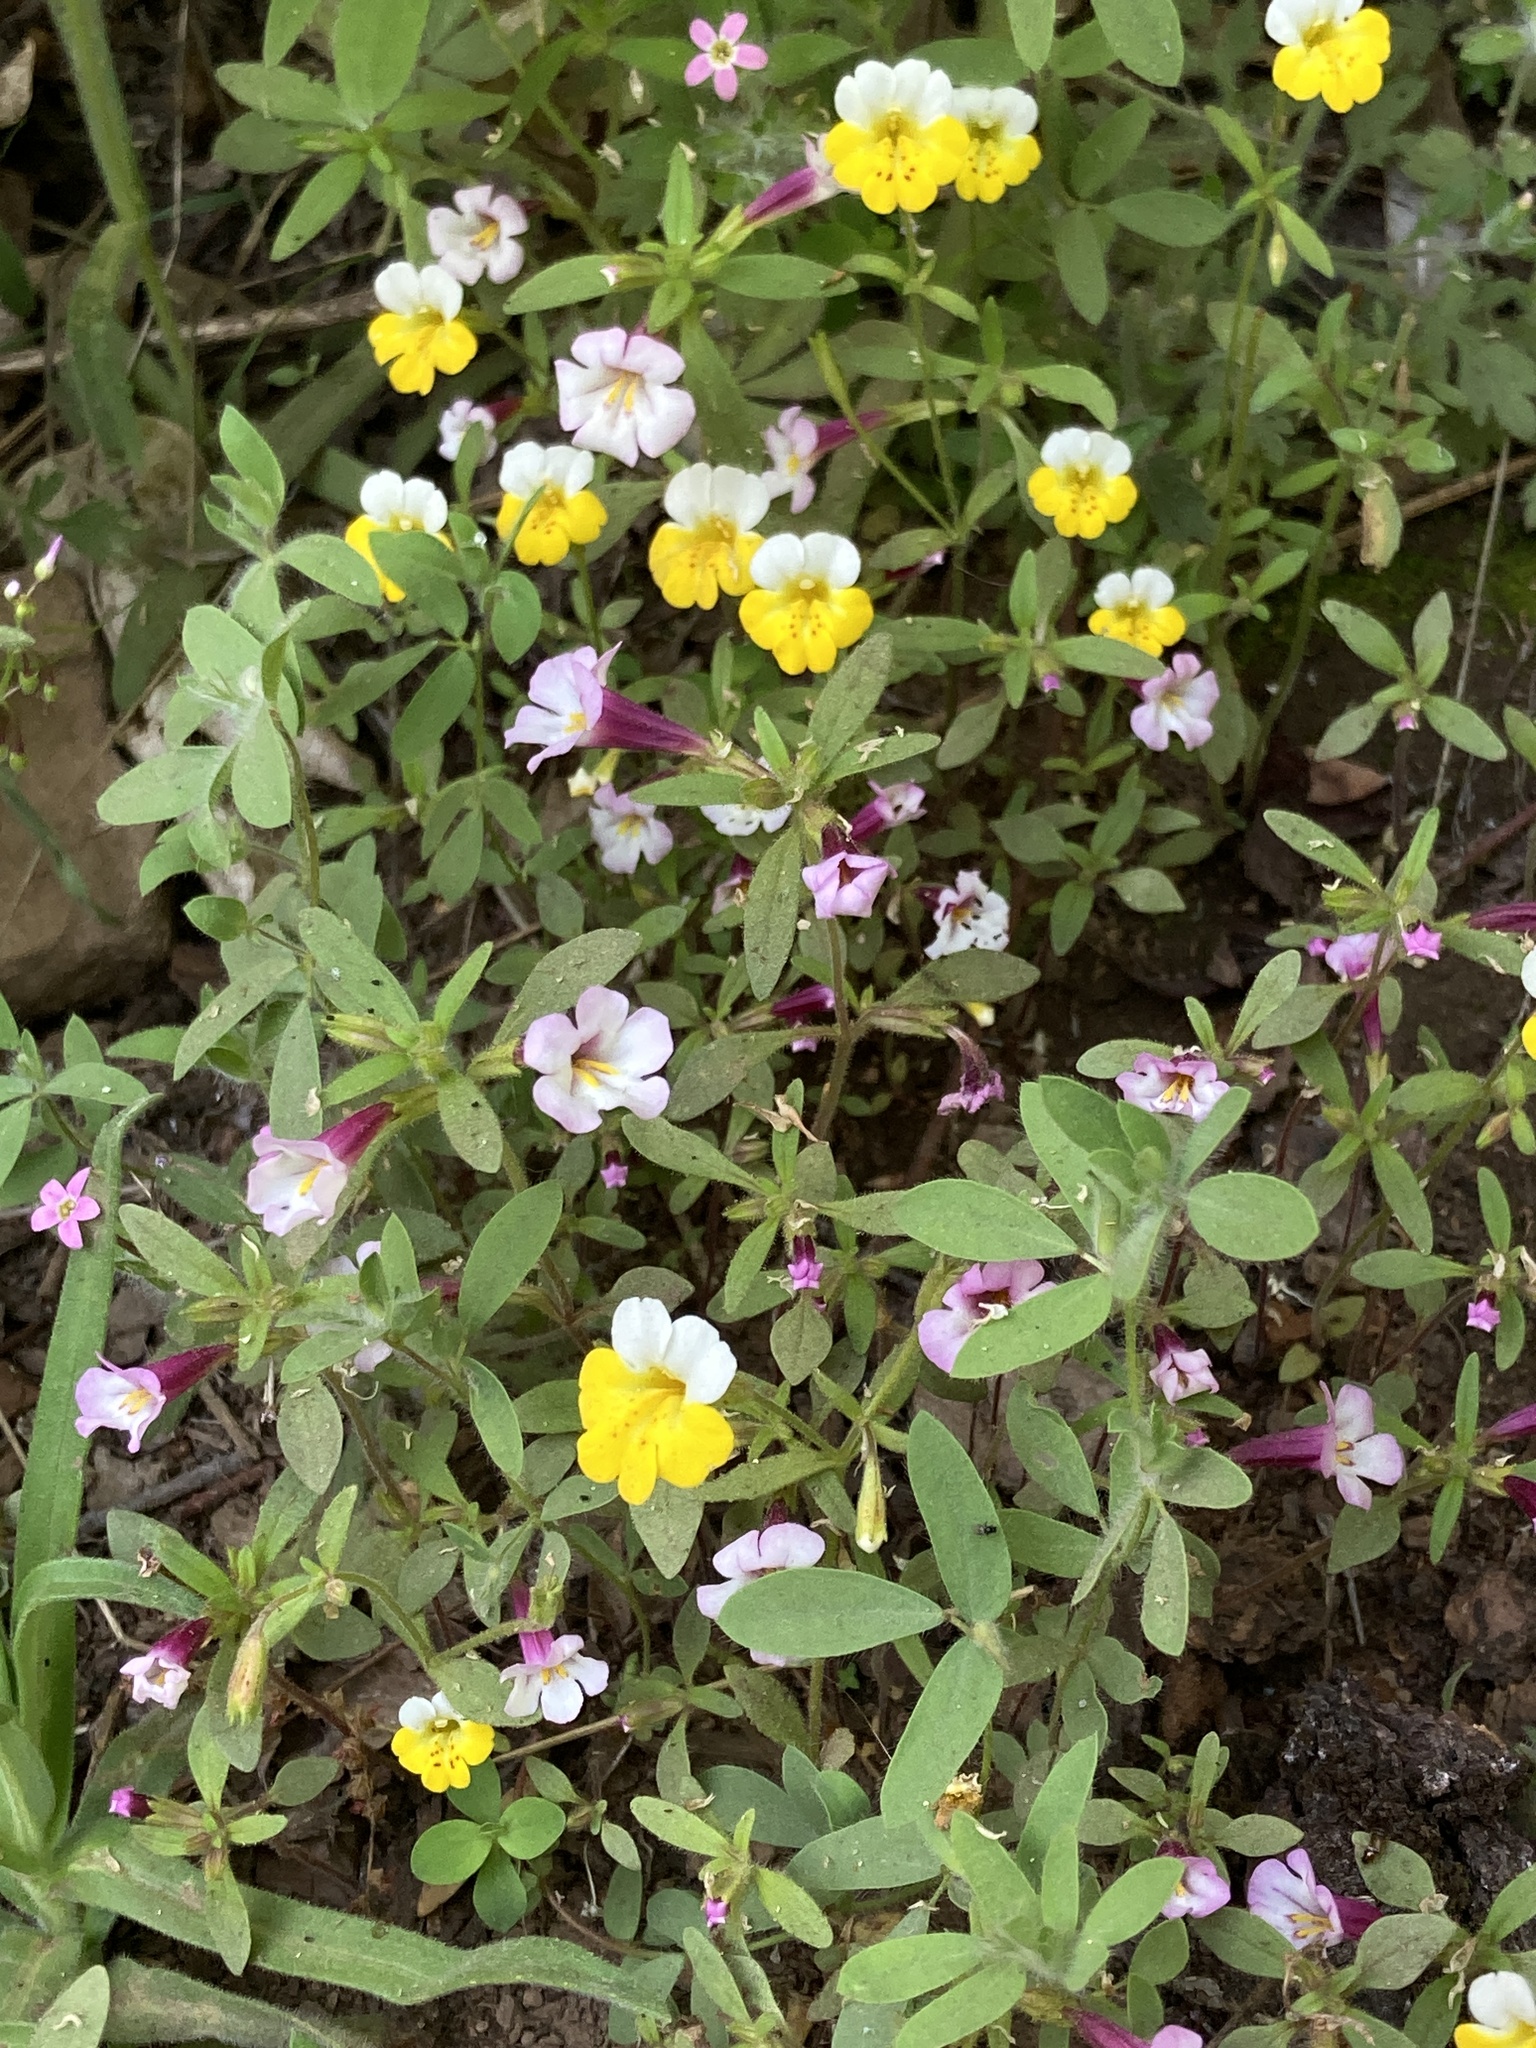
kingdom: Plantae
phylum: Tracheophyta
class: Magnoliopsida
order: Lamiales
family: Phrymaceae
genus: Erythranthe
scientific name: Erythranthe bicolor
